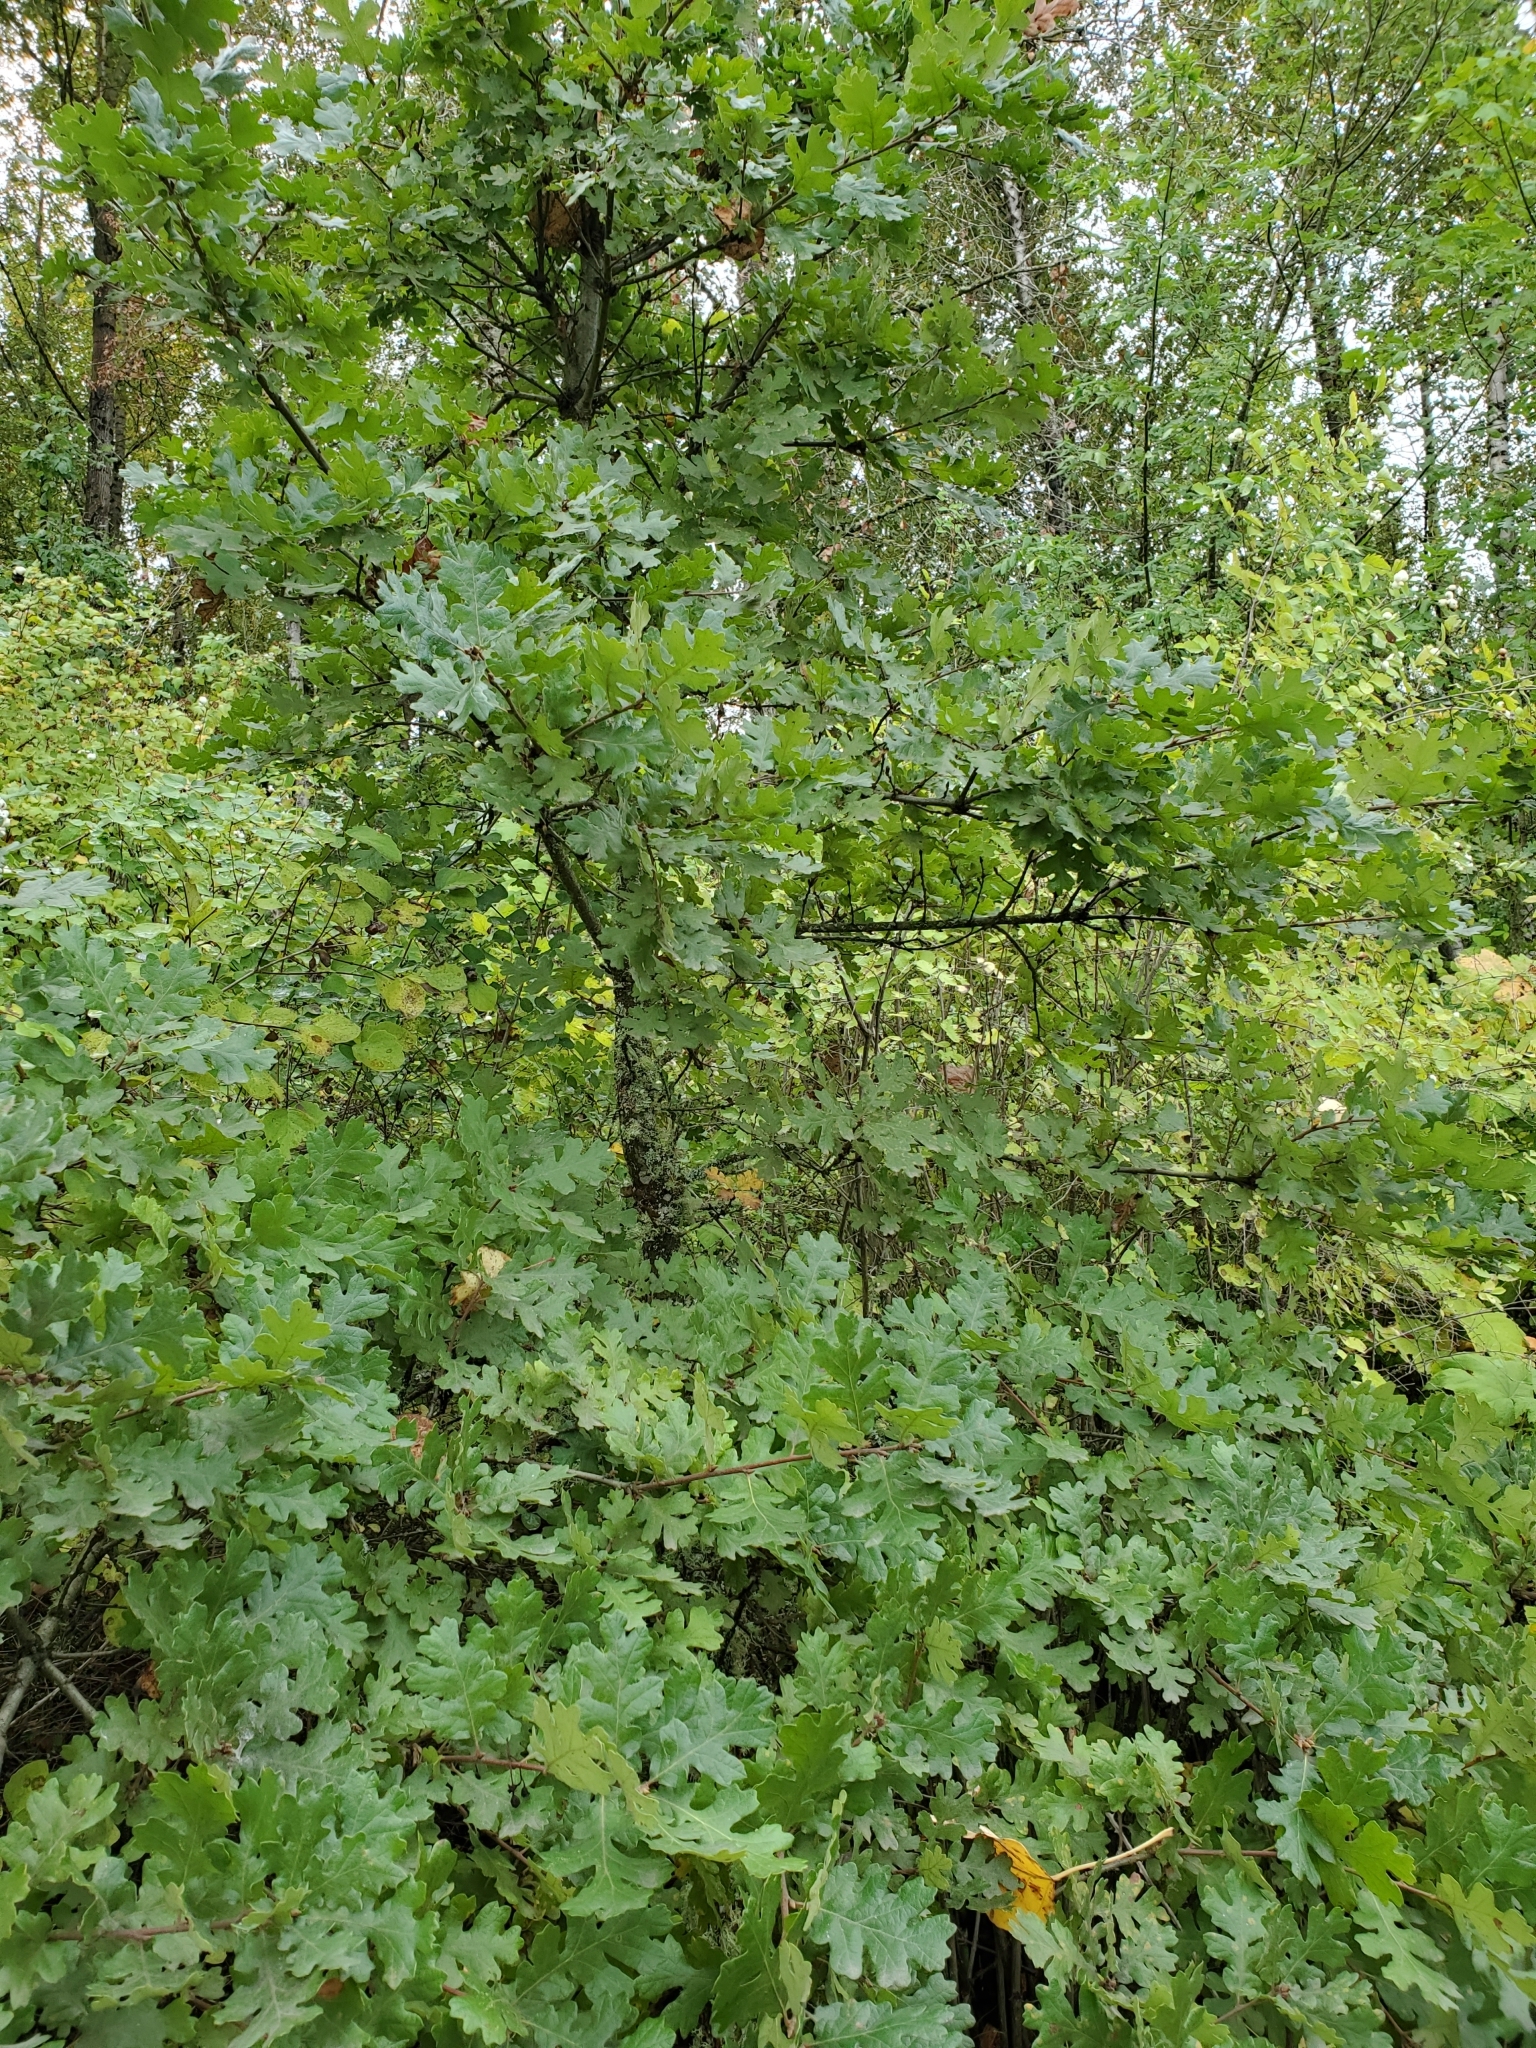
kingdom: Plantae
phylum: Tracheophyta
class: Magnoliopsida
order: Fagales
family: Fagaceae
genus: Quercus
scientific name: Quercus garryana
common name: Garry oak
